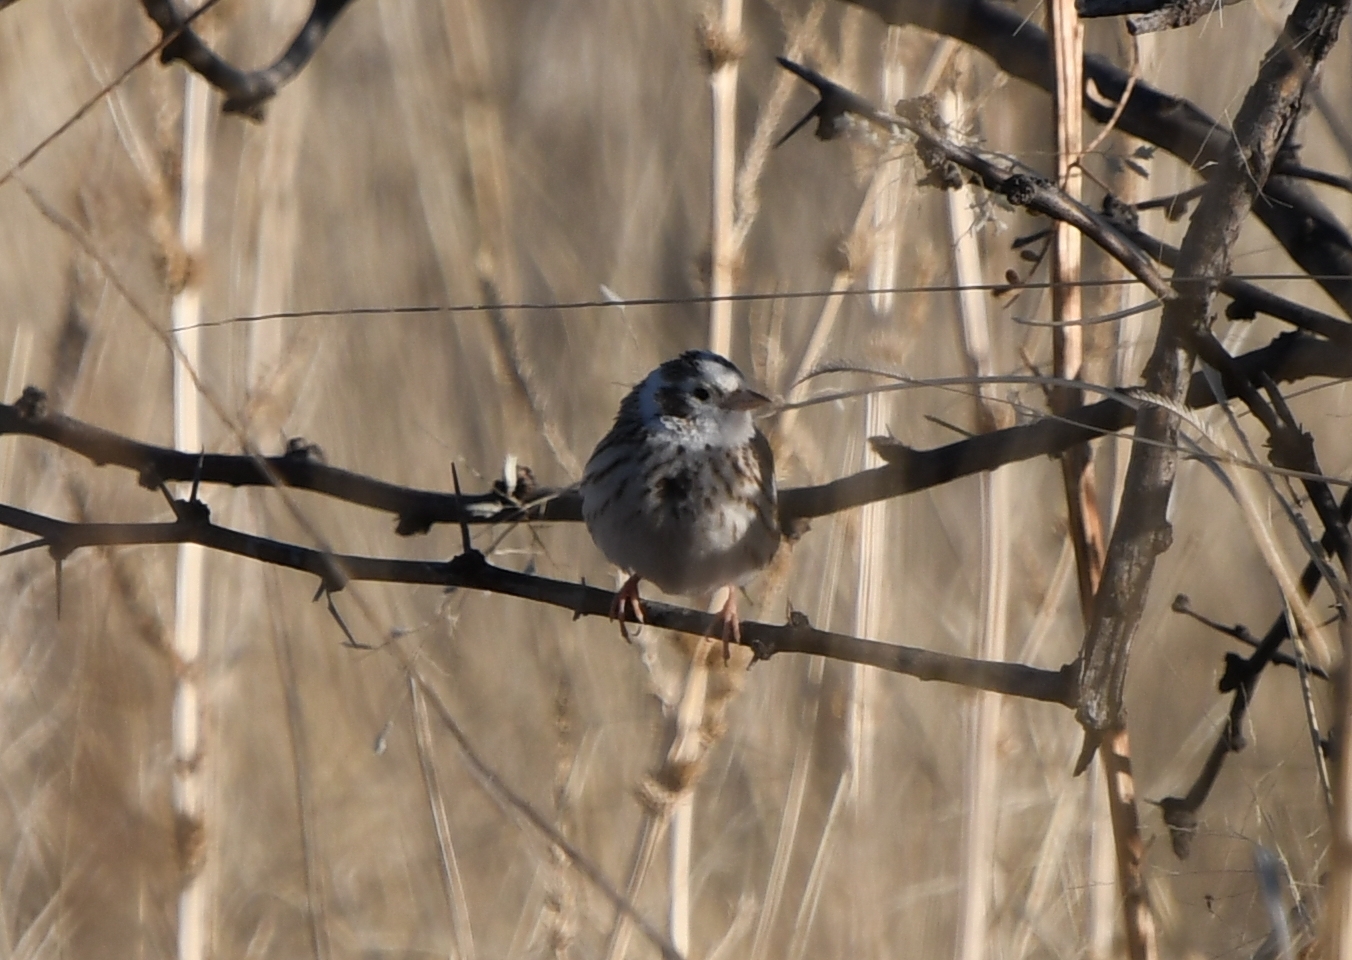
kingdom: Animalia
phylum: Chordata
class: Aves
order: Passeriformes
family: Passerellidae
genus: Passerculus
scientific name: Passerculus sandwichensis
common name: Savannah sparrow
